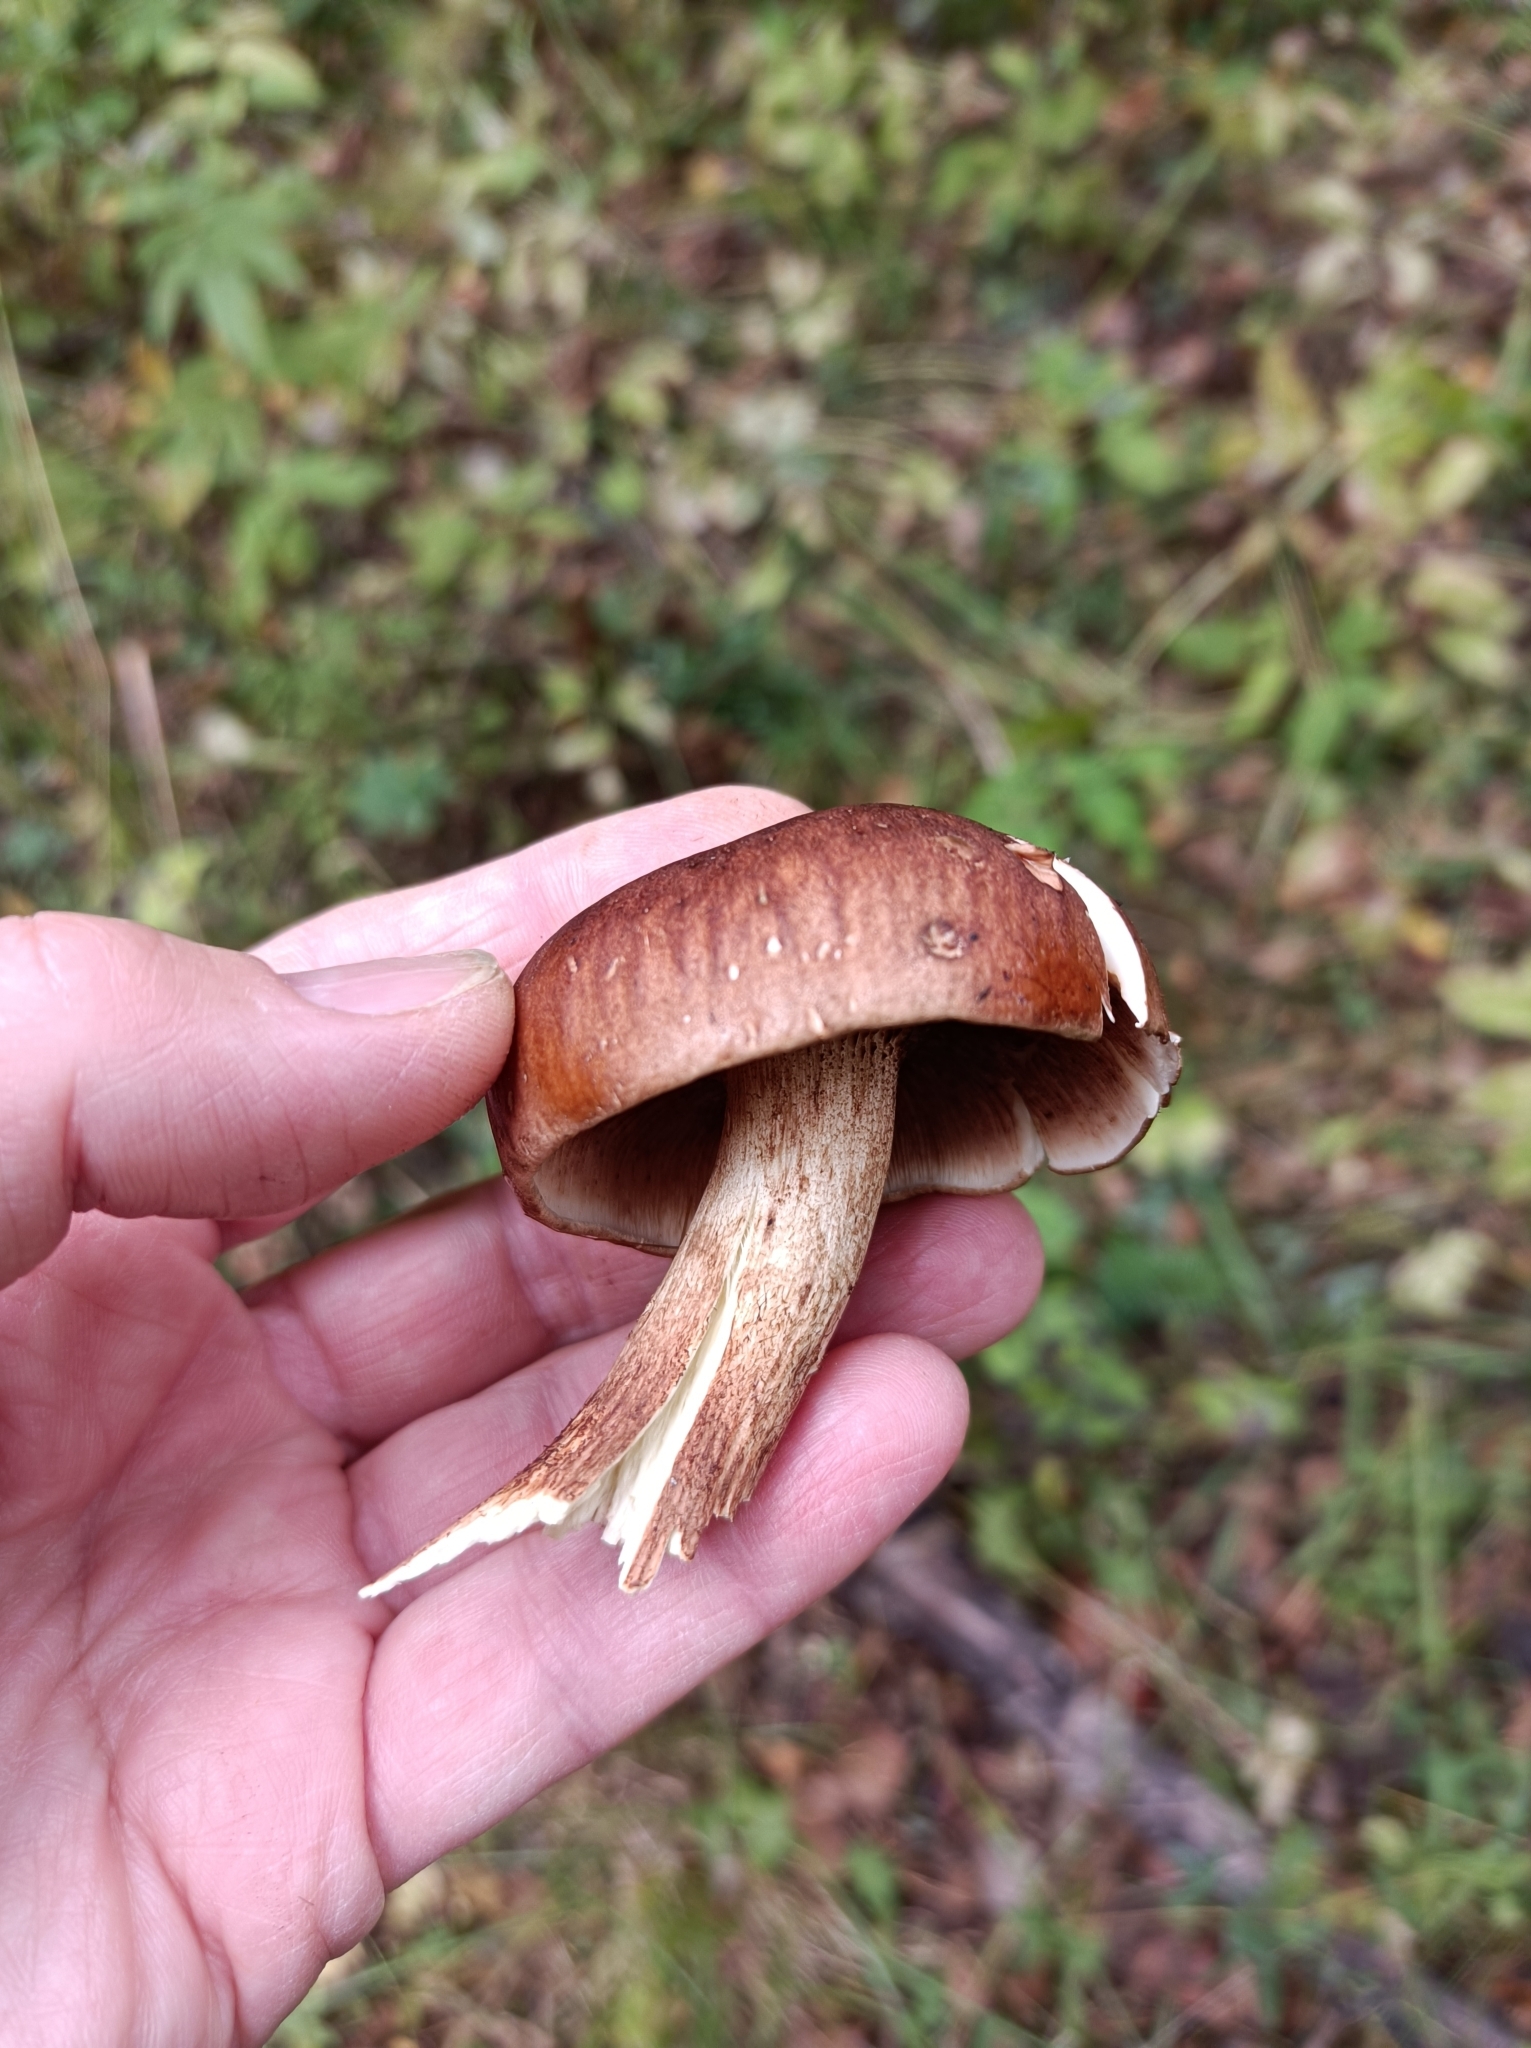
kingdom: Fungi
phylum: Basidiomycota
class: Agaricomycetes
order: Agaricales
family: Tricholomataceae
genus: Tricholoma
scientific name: Tricholoma fulvum
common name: Birch knight
